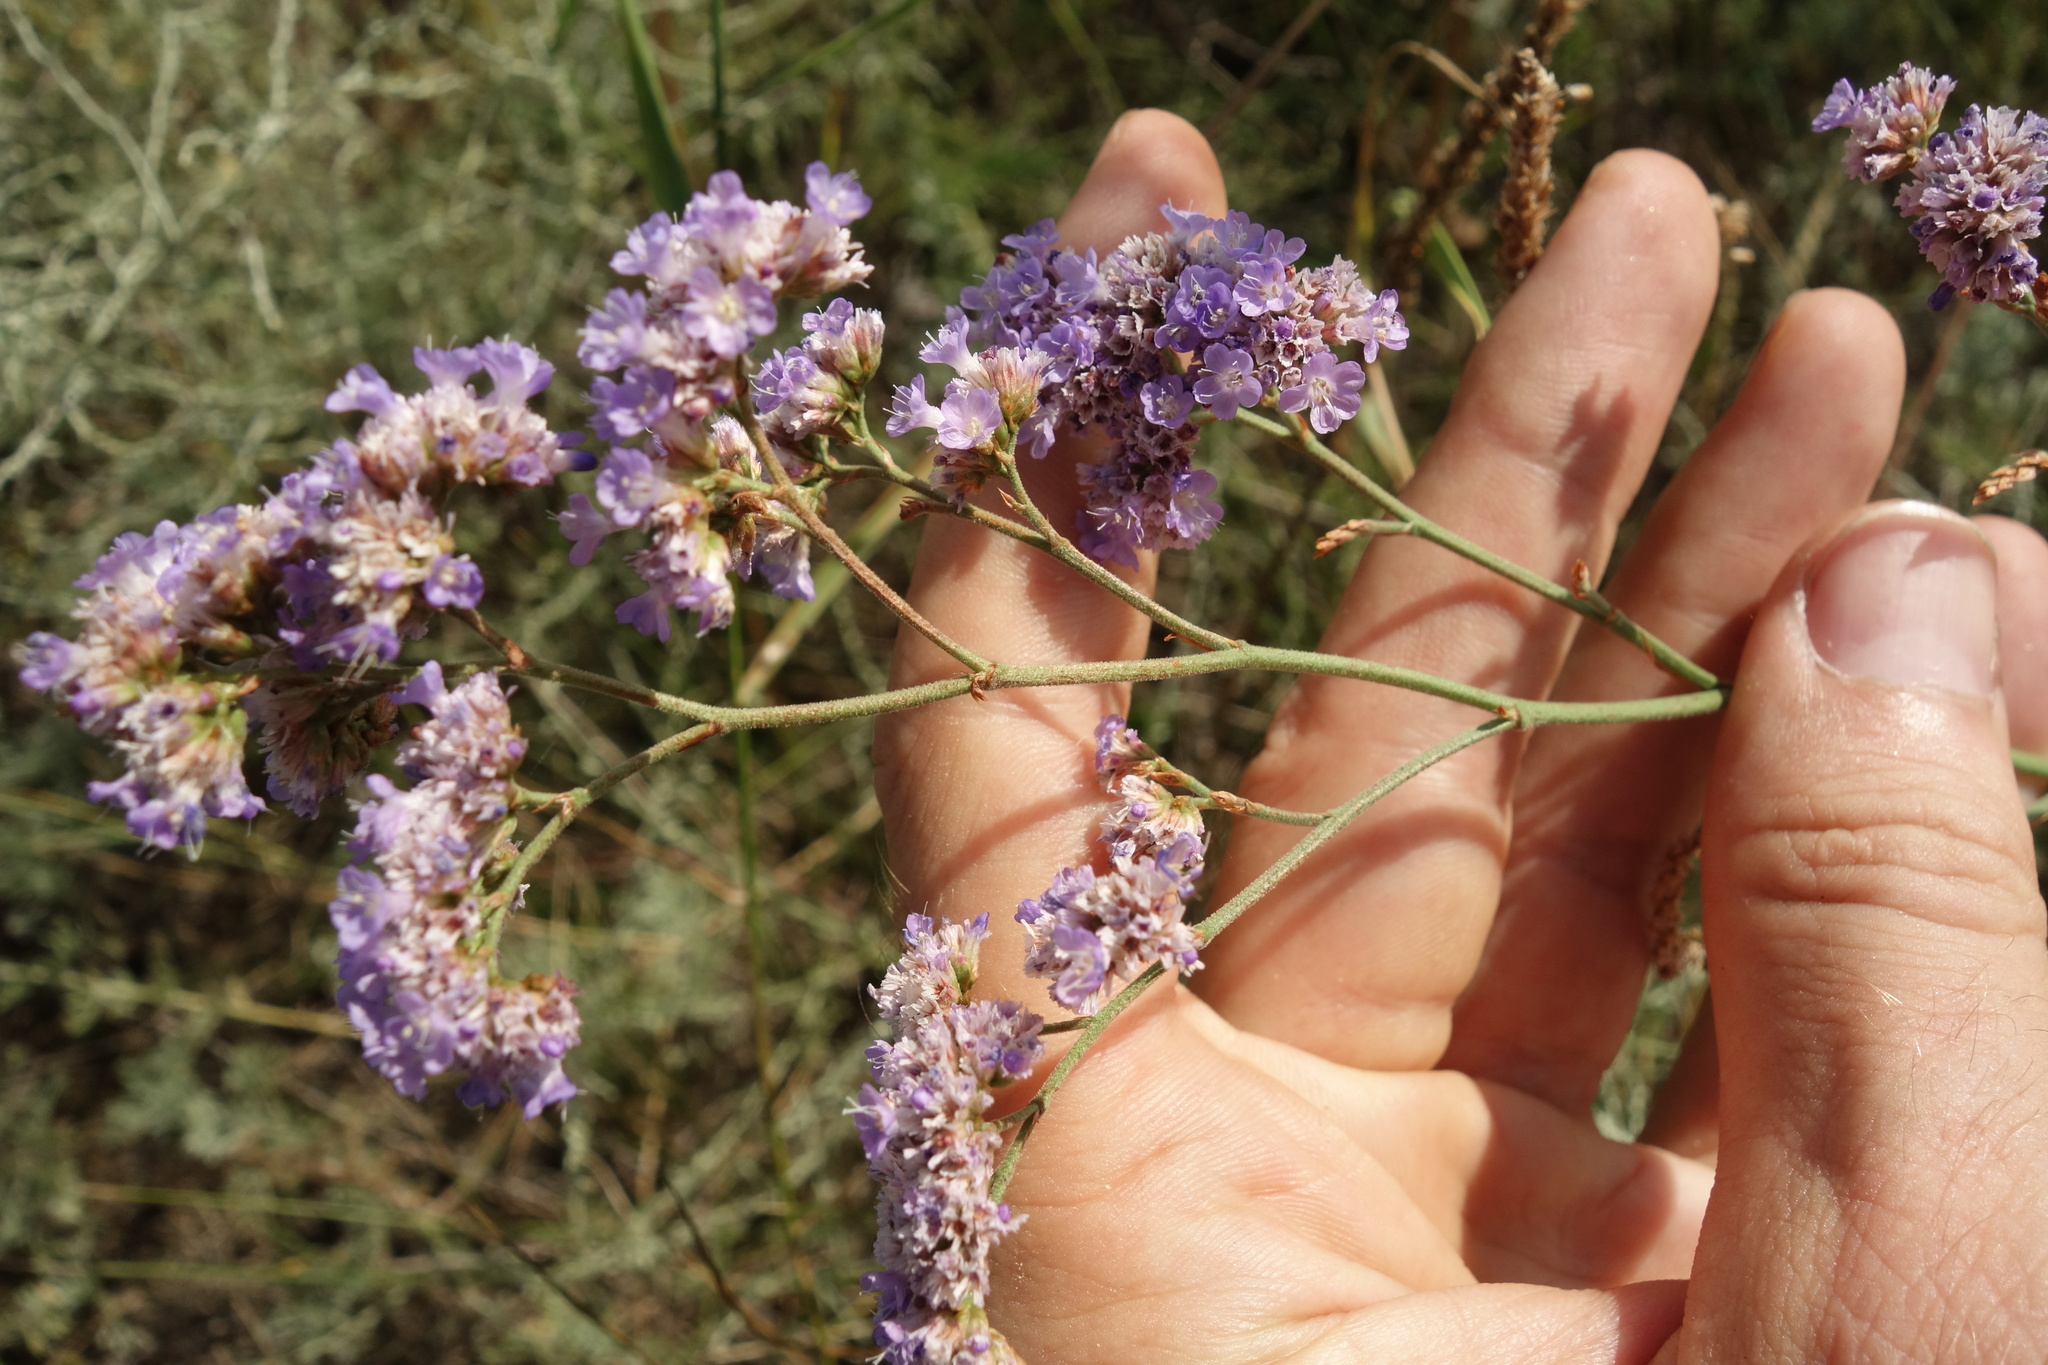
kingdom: Plantae
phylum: Tracheophyta
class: Magnoliopsida
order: Caryophyllales
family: Plumbaginaceae
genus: Limonium
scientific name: Limonium tomentellum
